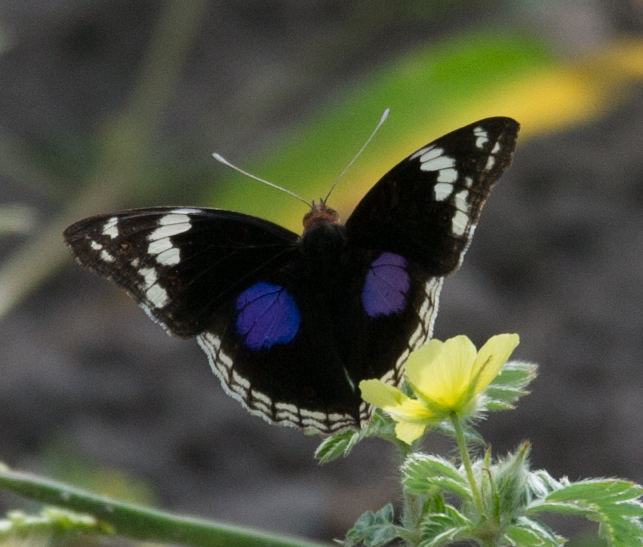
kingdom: Animalia
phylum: Arthropoda
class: Insecta
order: Lepidoptera
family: Nymphalidae
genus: Junonia
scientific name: Junonia oenone
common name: Dark blue pansy
